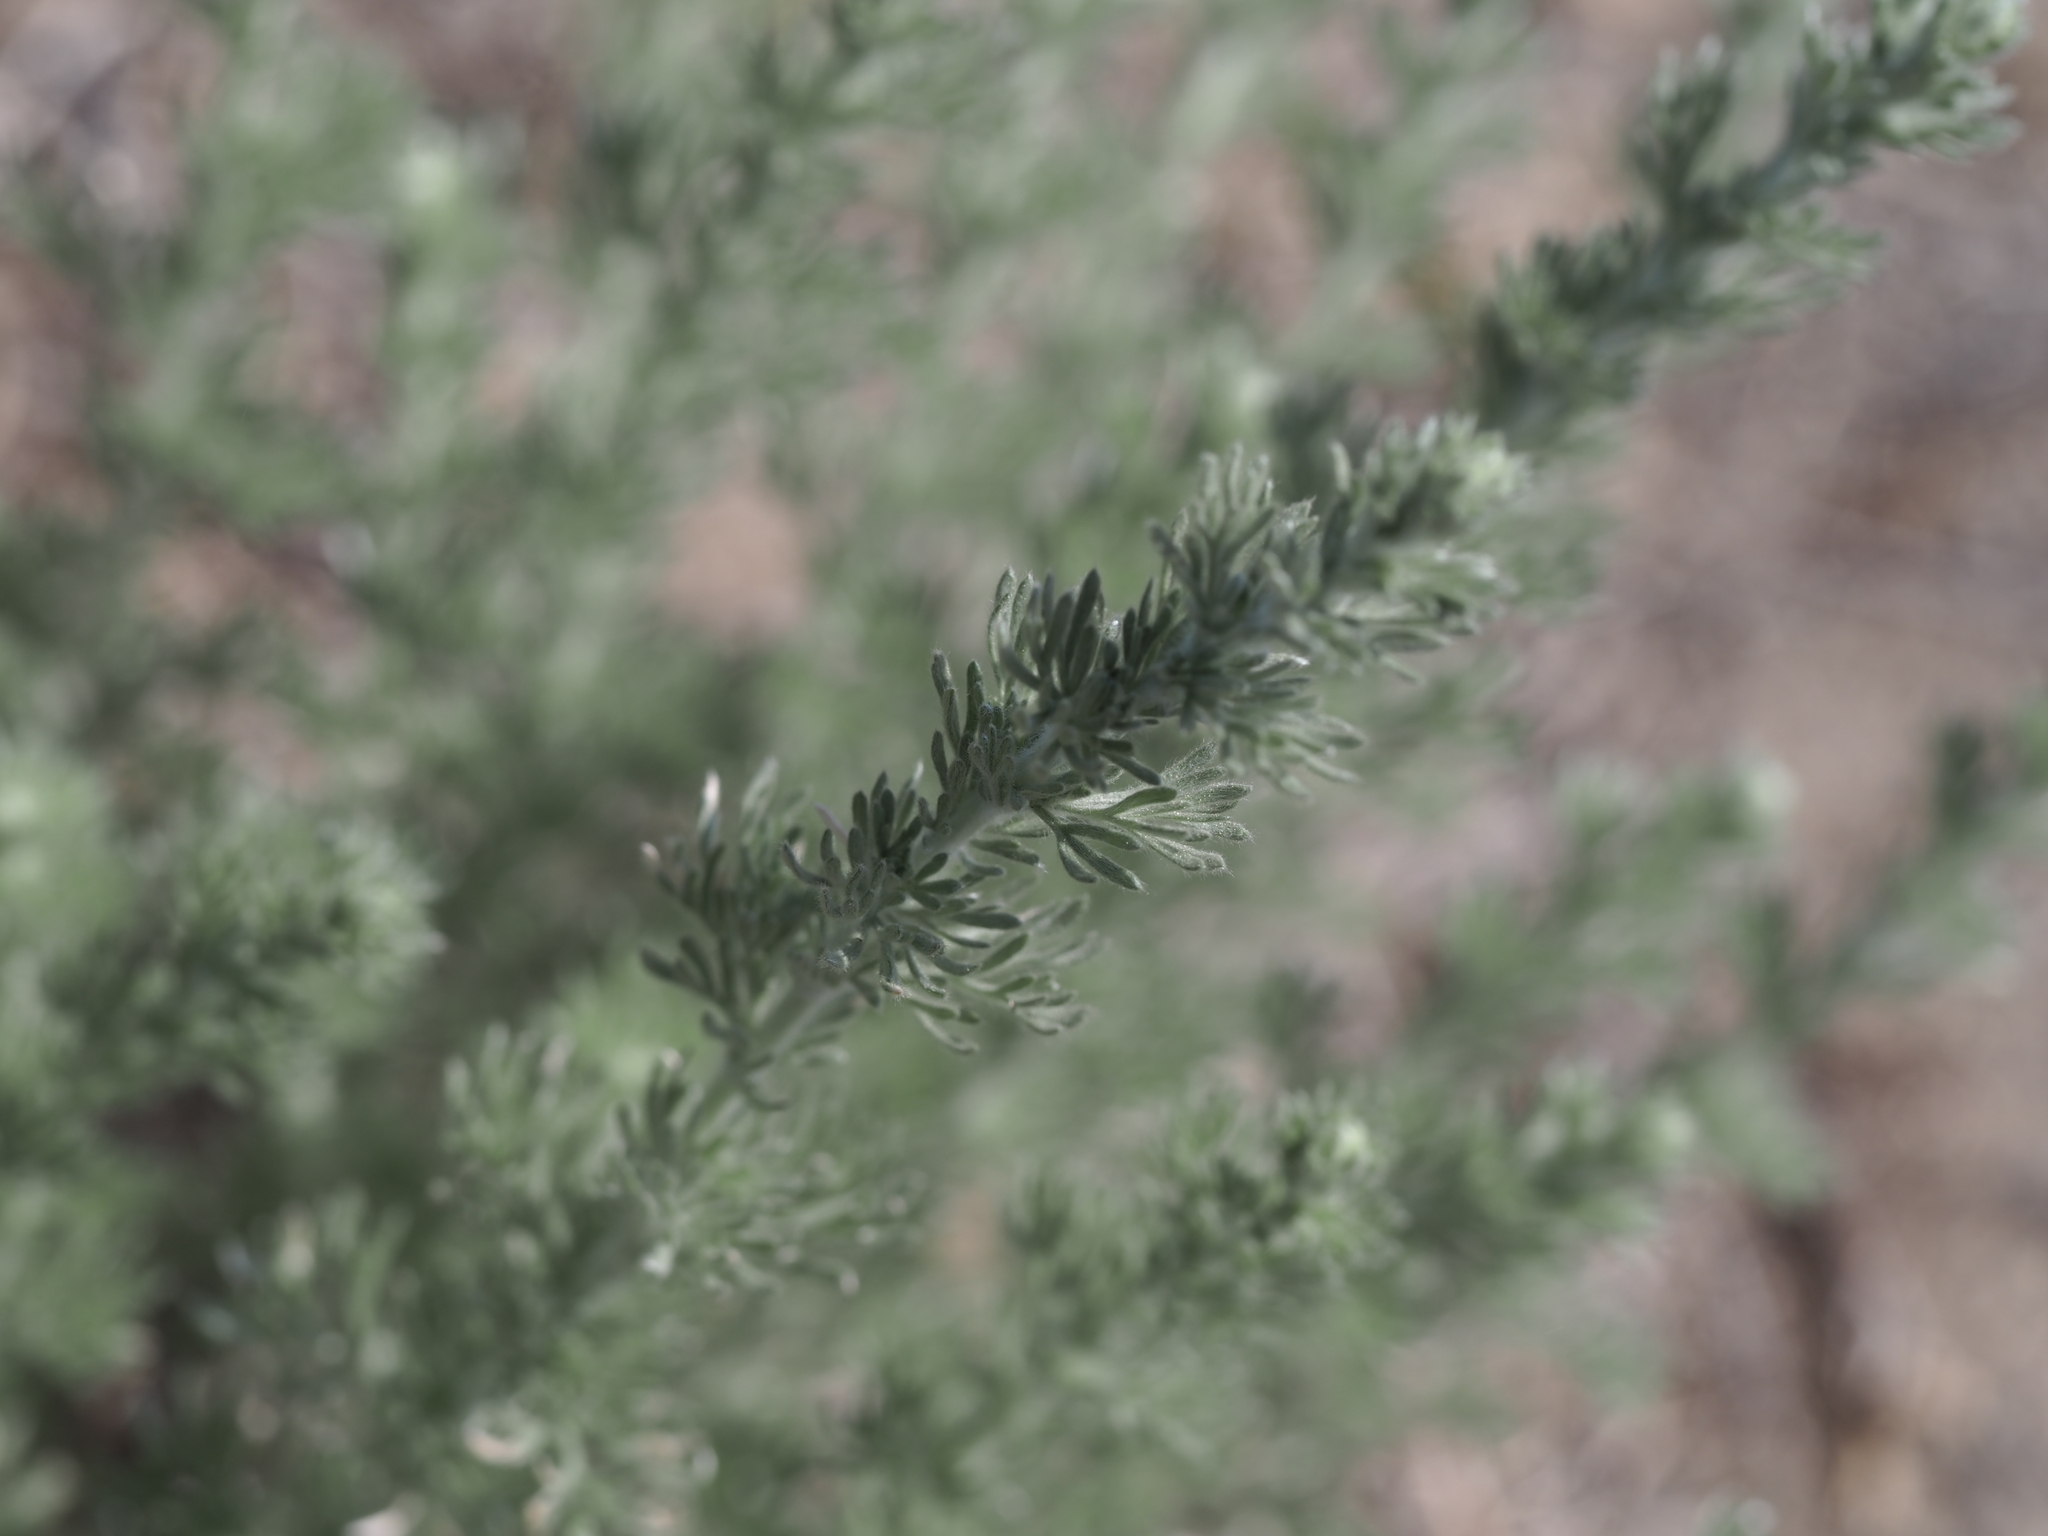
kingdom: Plantae
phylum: Tracheophyta
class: Magnoliopsida
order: Asterales
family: Asteraceae
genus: Artemisia
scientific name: Artemisia frigida
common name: Prairie sagewort
